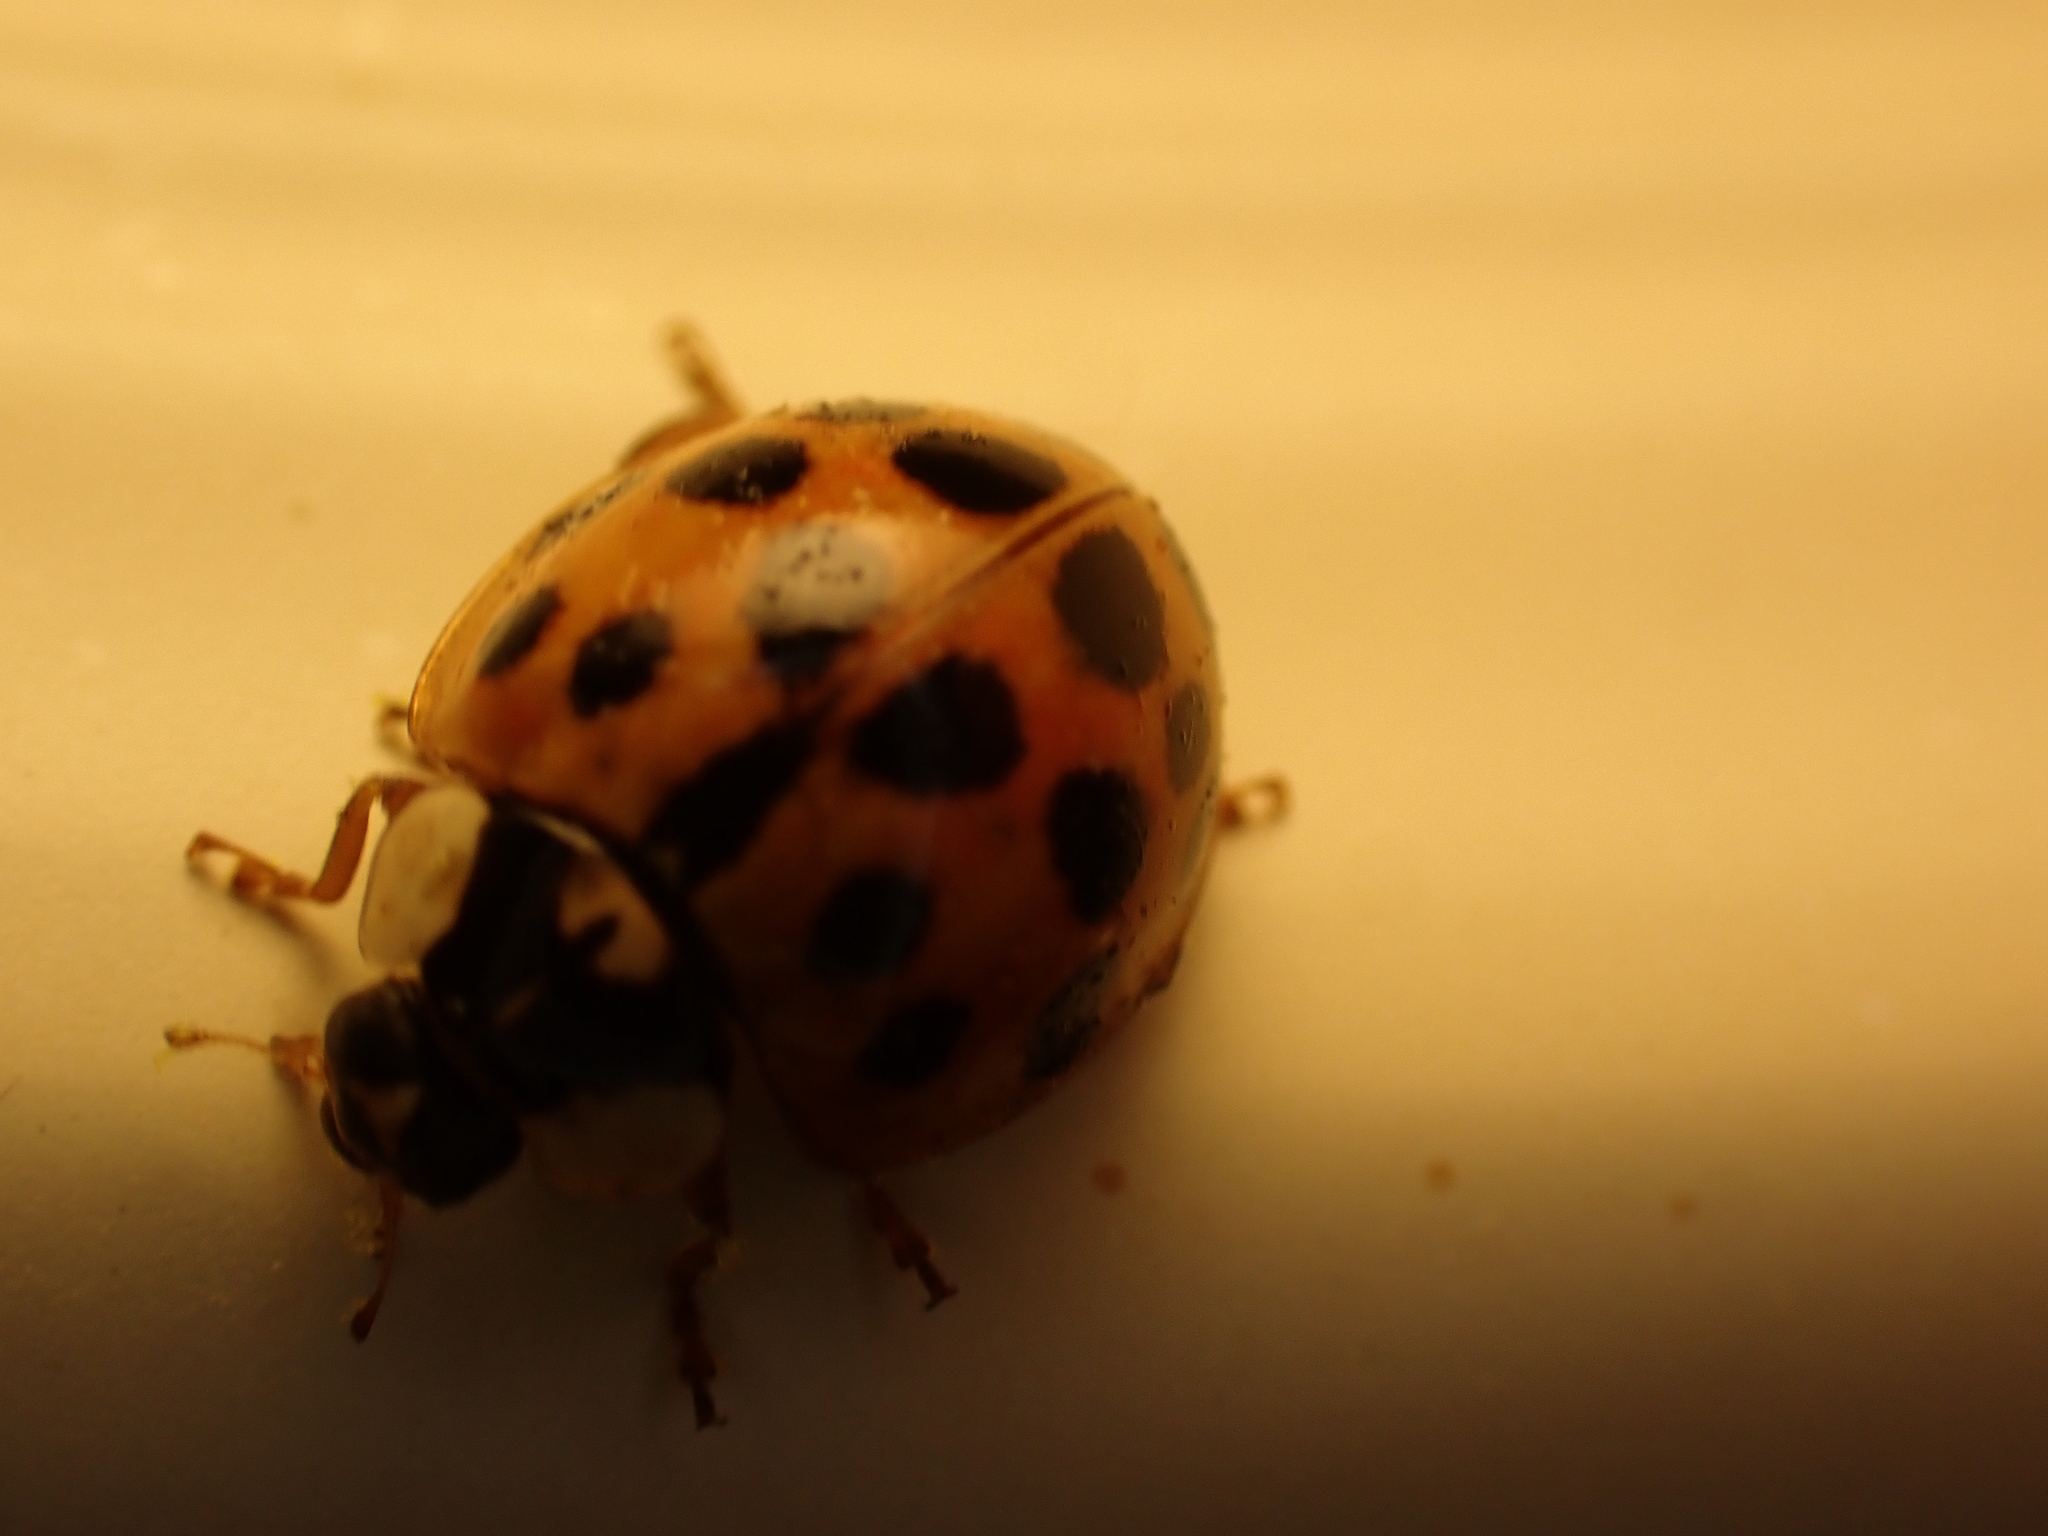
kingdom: Animalia
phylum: Arthropoda
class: Insecta
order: Coleoptera
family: Coccinellidae
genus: Harmonia
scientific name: Harmonia axyridis
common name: Harlequin ladybird
